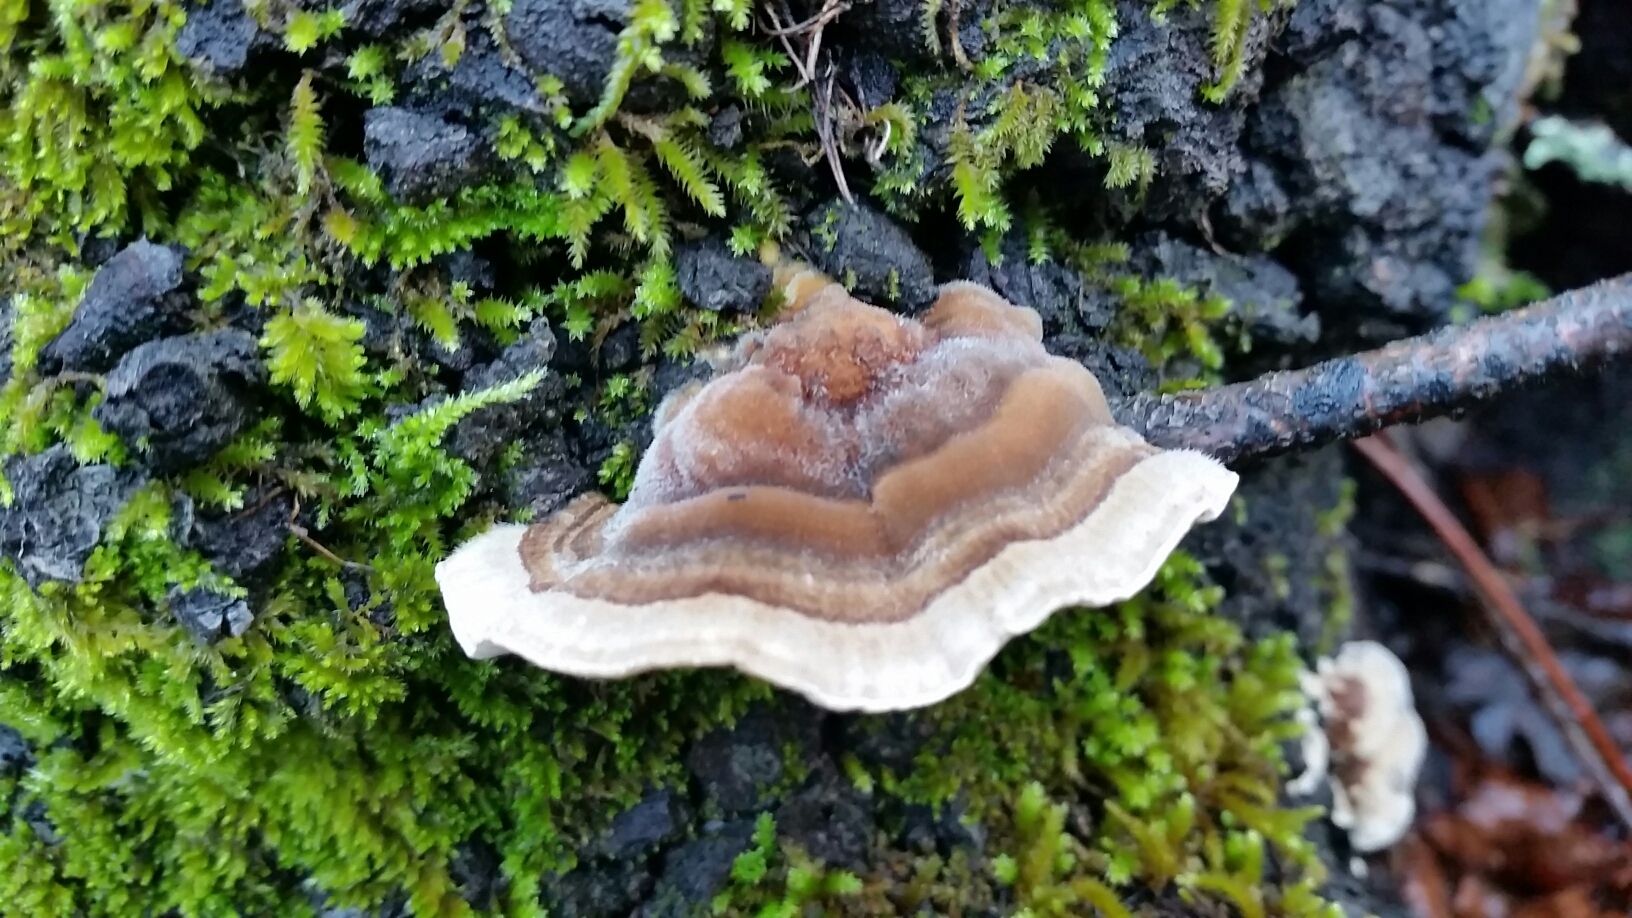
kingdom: Fungi
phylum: Basidiomycota
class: Agaricomycetes
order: Polyporales
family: Polyporaceae
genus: Trametes
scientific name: Trametes versicolor
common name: Turkeytail
